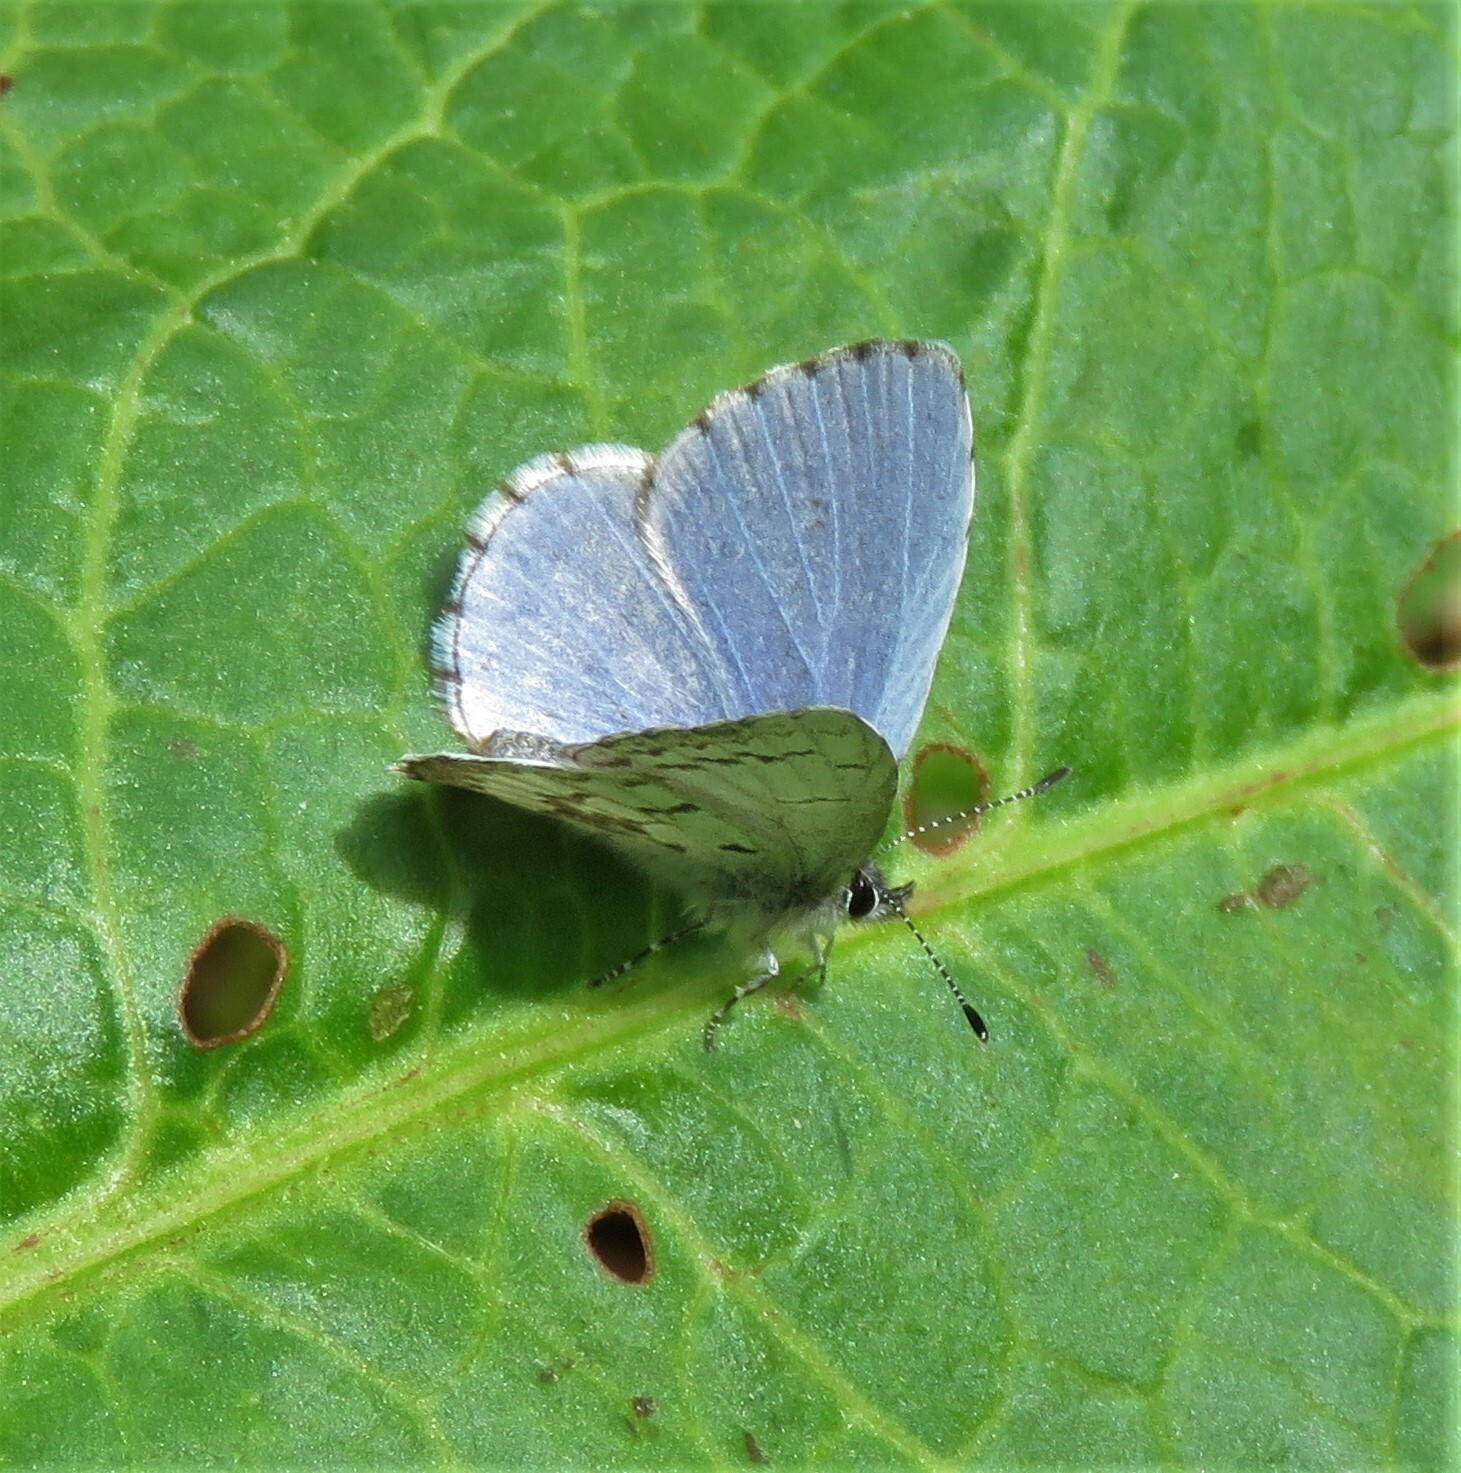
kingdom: Animalia
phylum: Arthropoda
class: Insecta
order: Lepidoptera
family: Lycaenidae
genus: Celastrina
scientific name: Celastrina lucia
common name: Lucia azure
